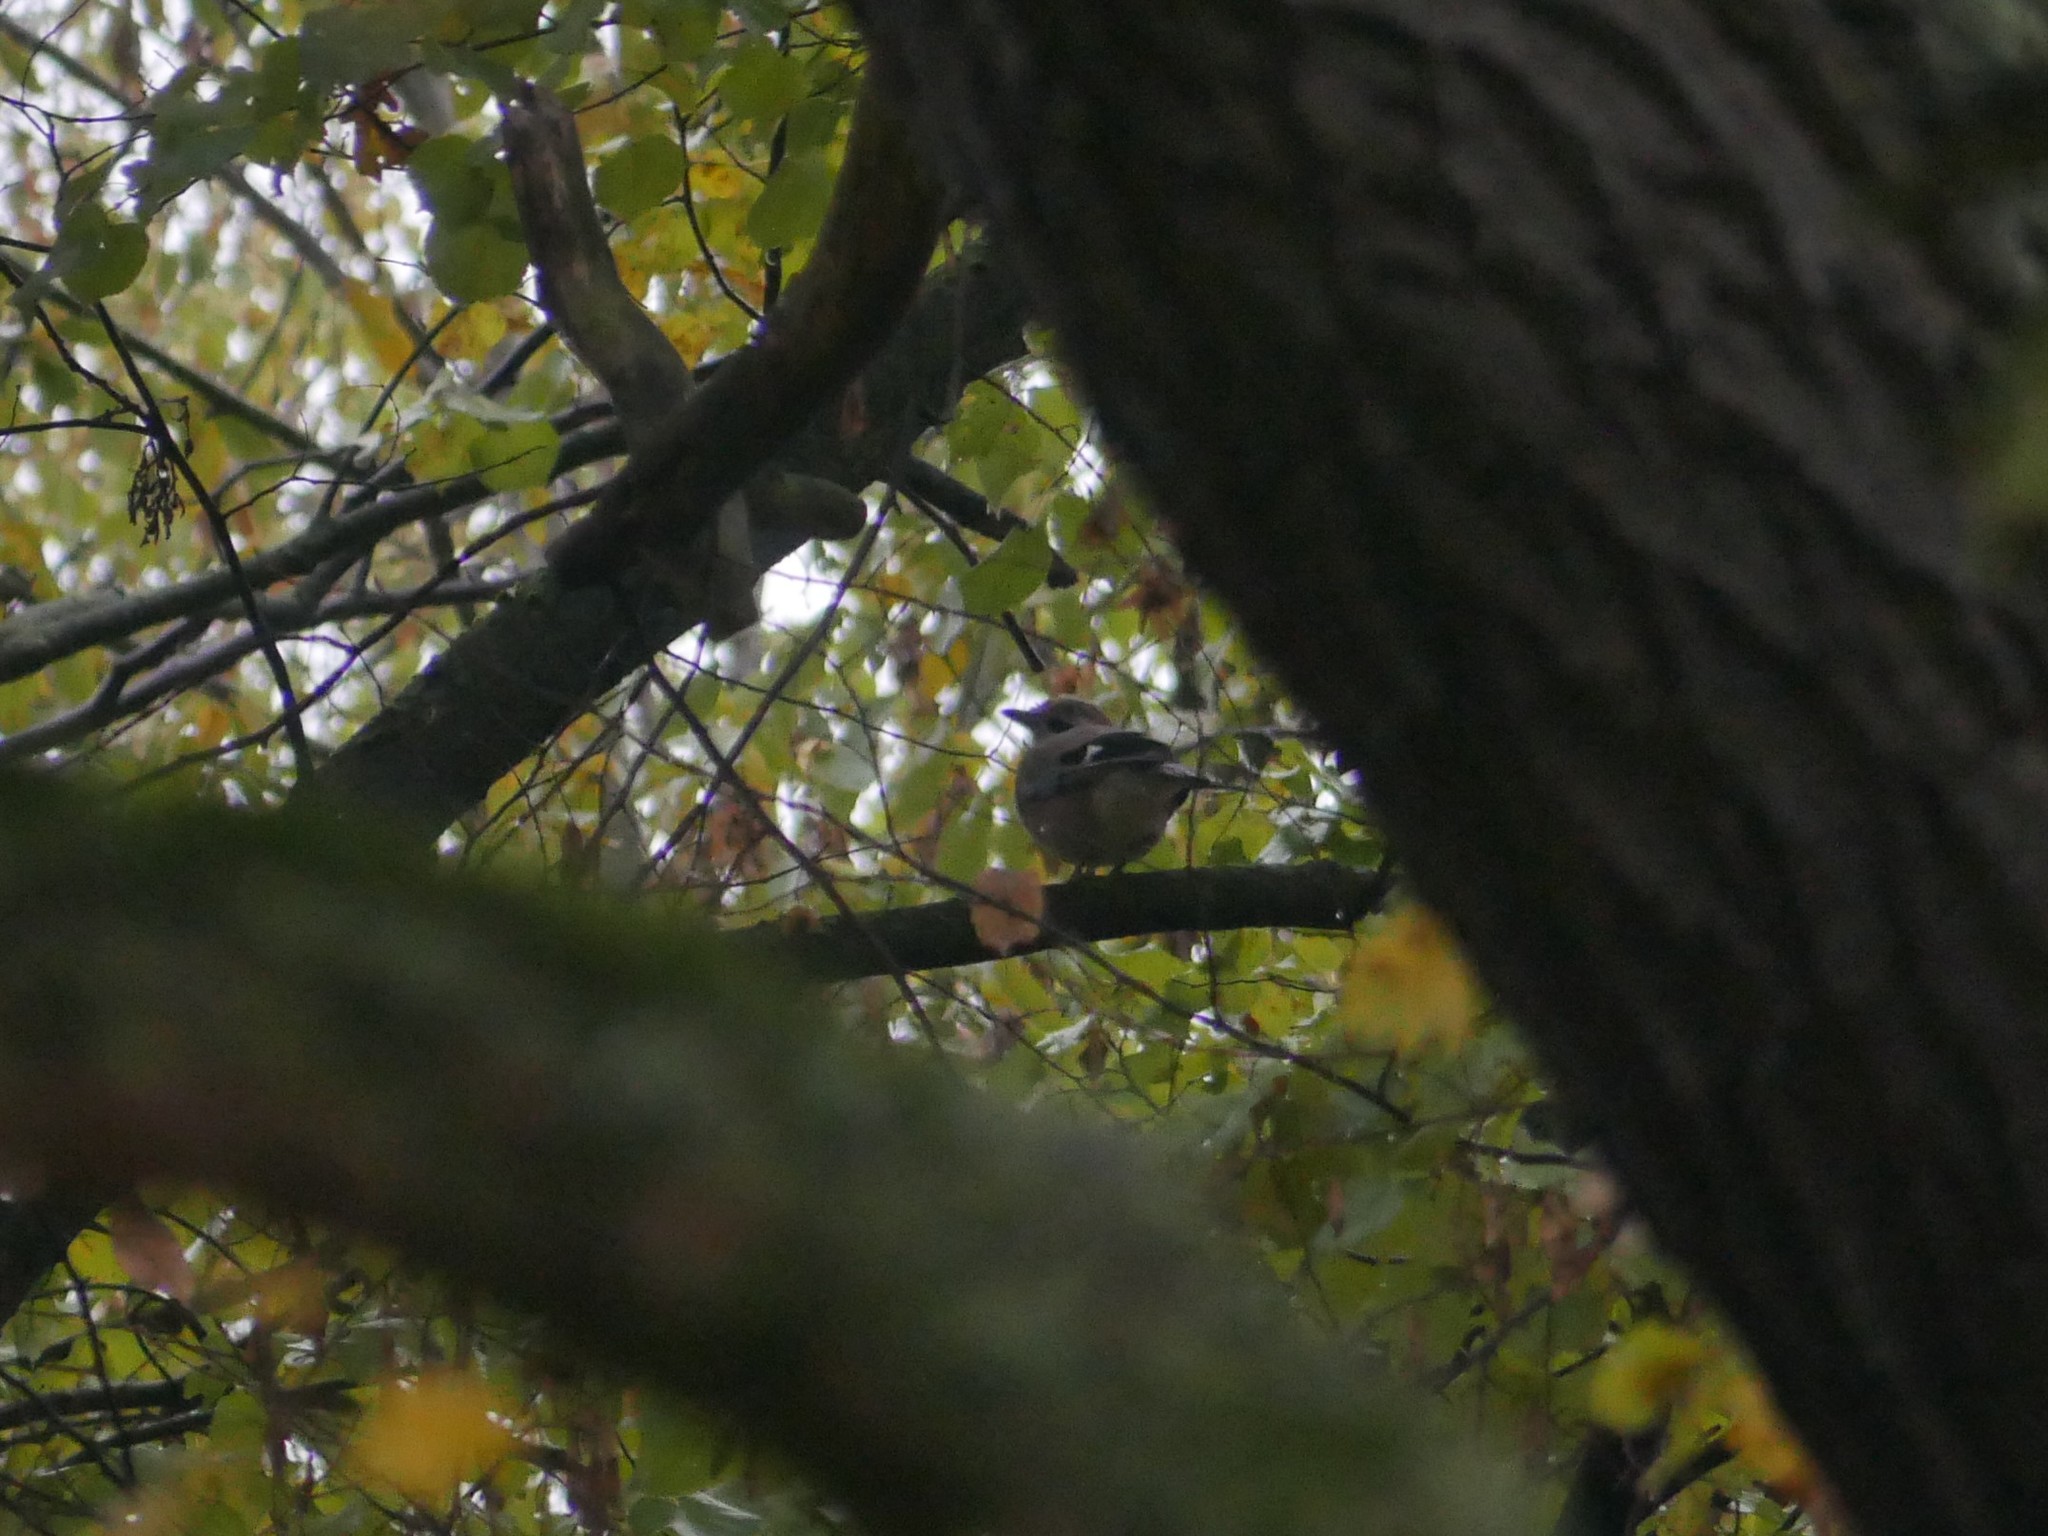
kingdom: Animalia
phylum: Chordata
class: Aves
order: Passeriformes
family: Corvidae
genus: Garrulus
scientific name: Garrulus glandarius
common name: Eurasian jay
